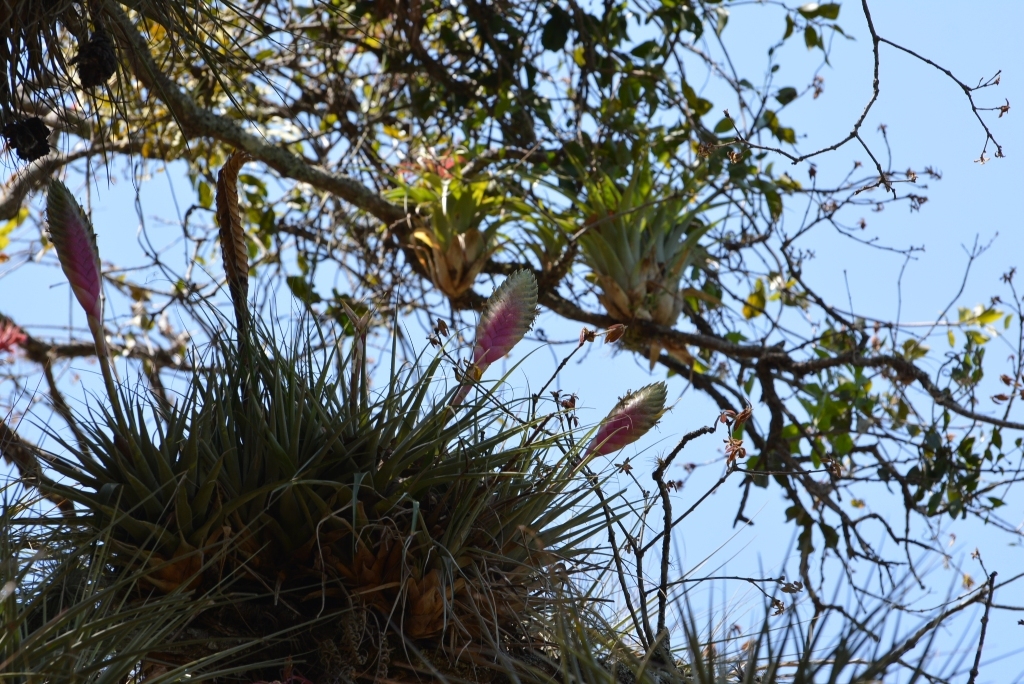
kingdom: Plantae
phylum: Tracheophyta
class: Liliopsida
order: Poales
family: Bromeliaceae
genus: Tillandsia
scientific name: Tillandsia lampropoda
